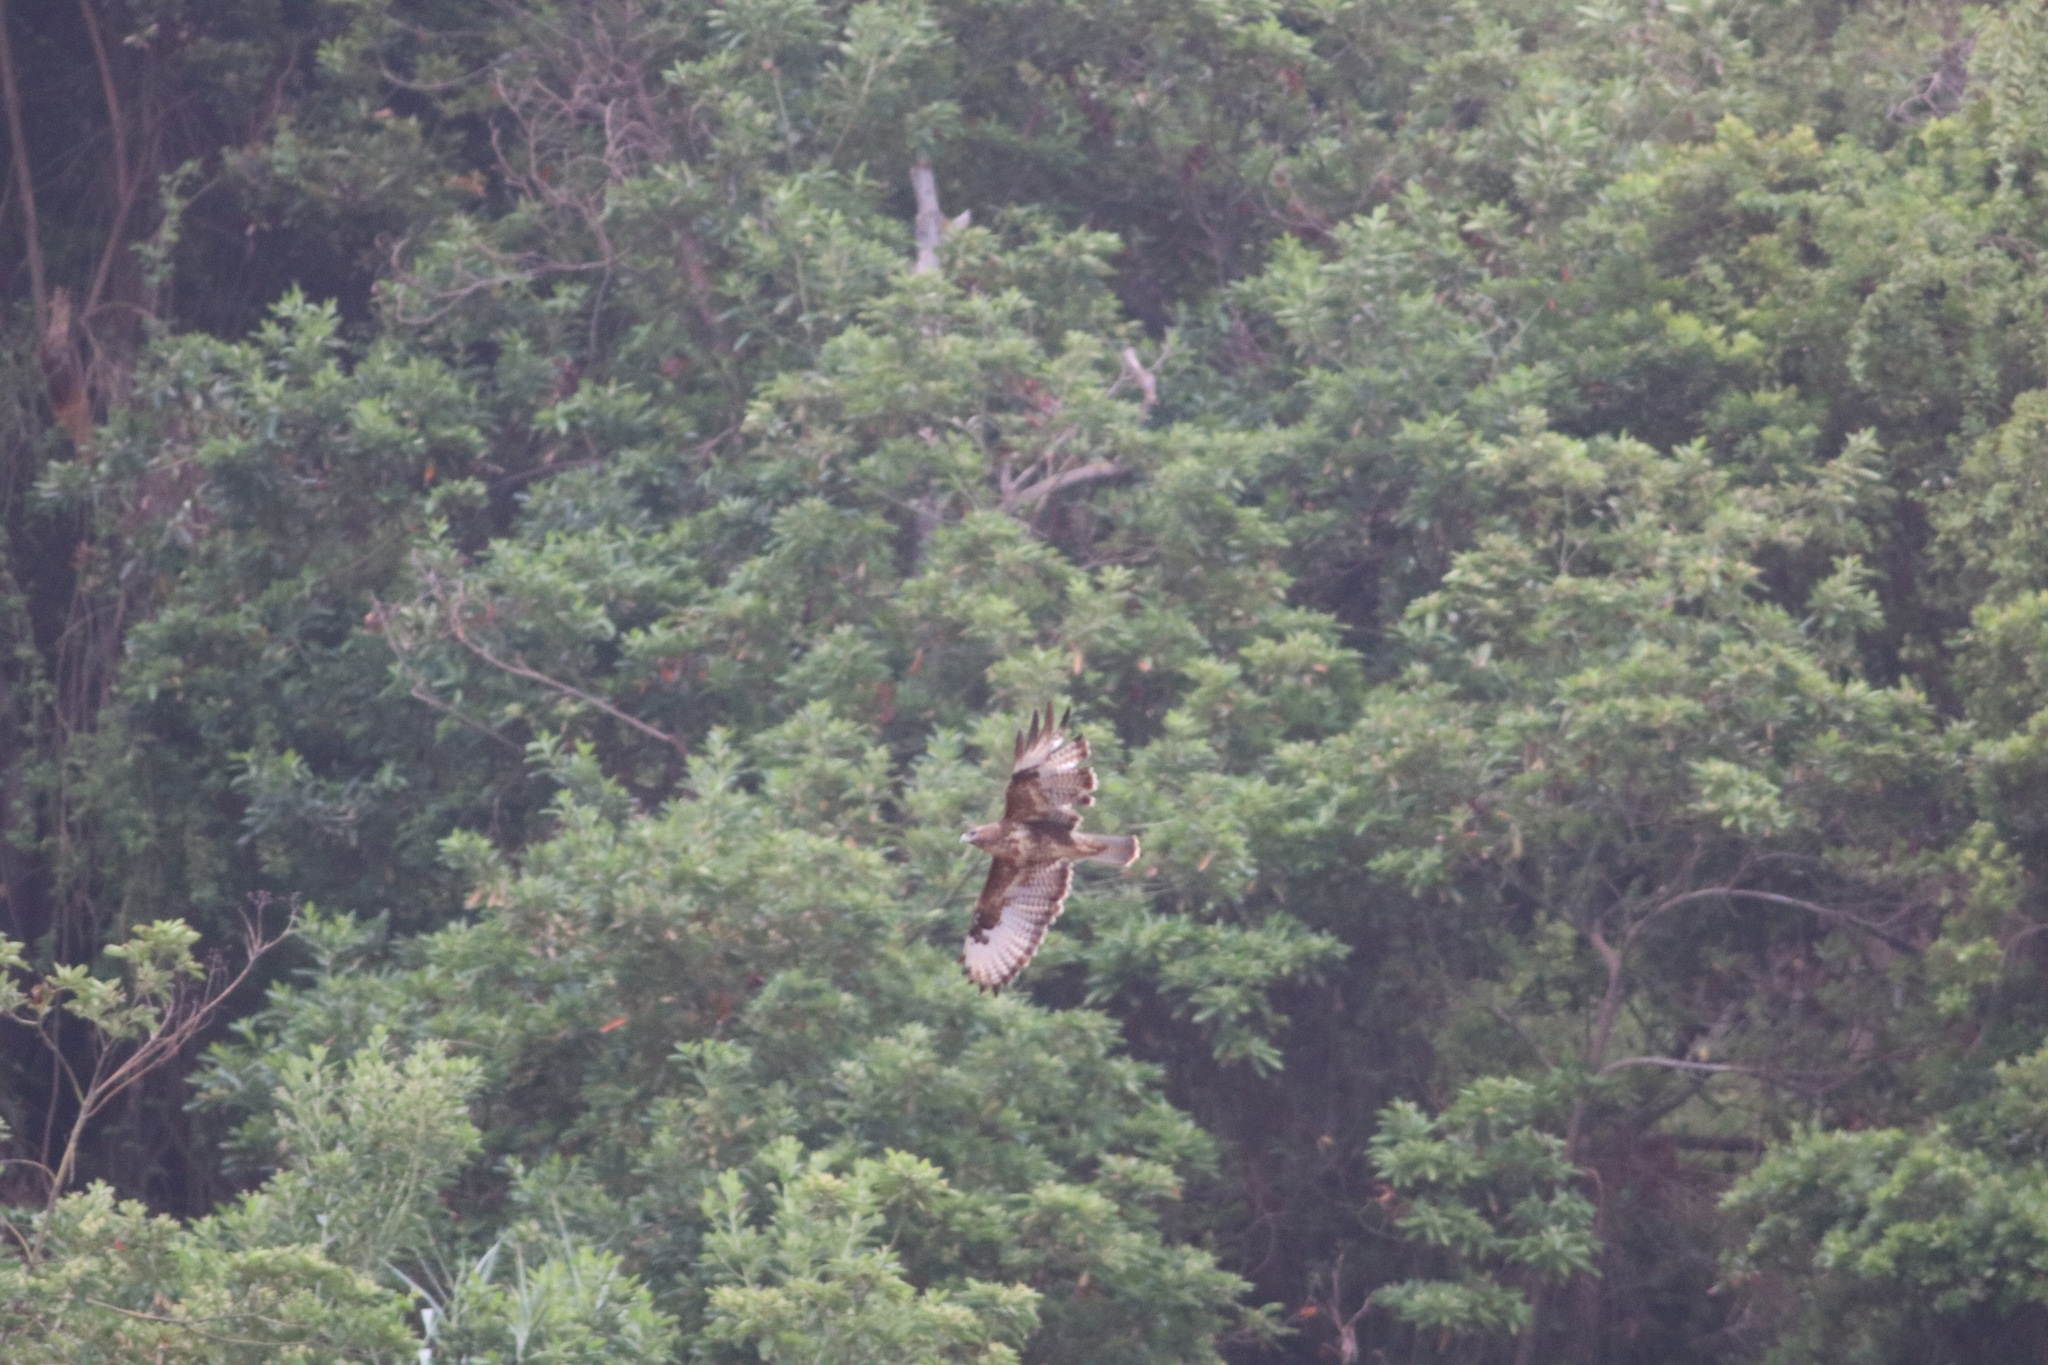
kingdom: Animalia
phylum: Chordata
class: Aves
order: Accipitriformes
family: Accipitridae
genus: Buteo
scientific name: Buteo buteo
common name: Common buzzard
